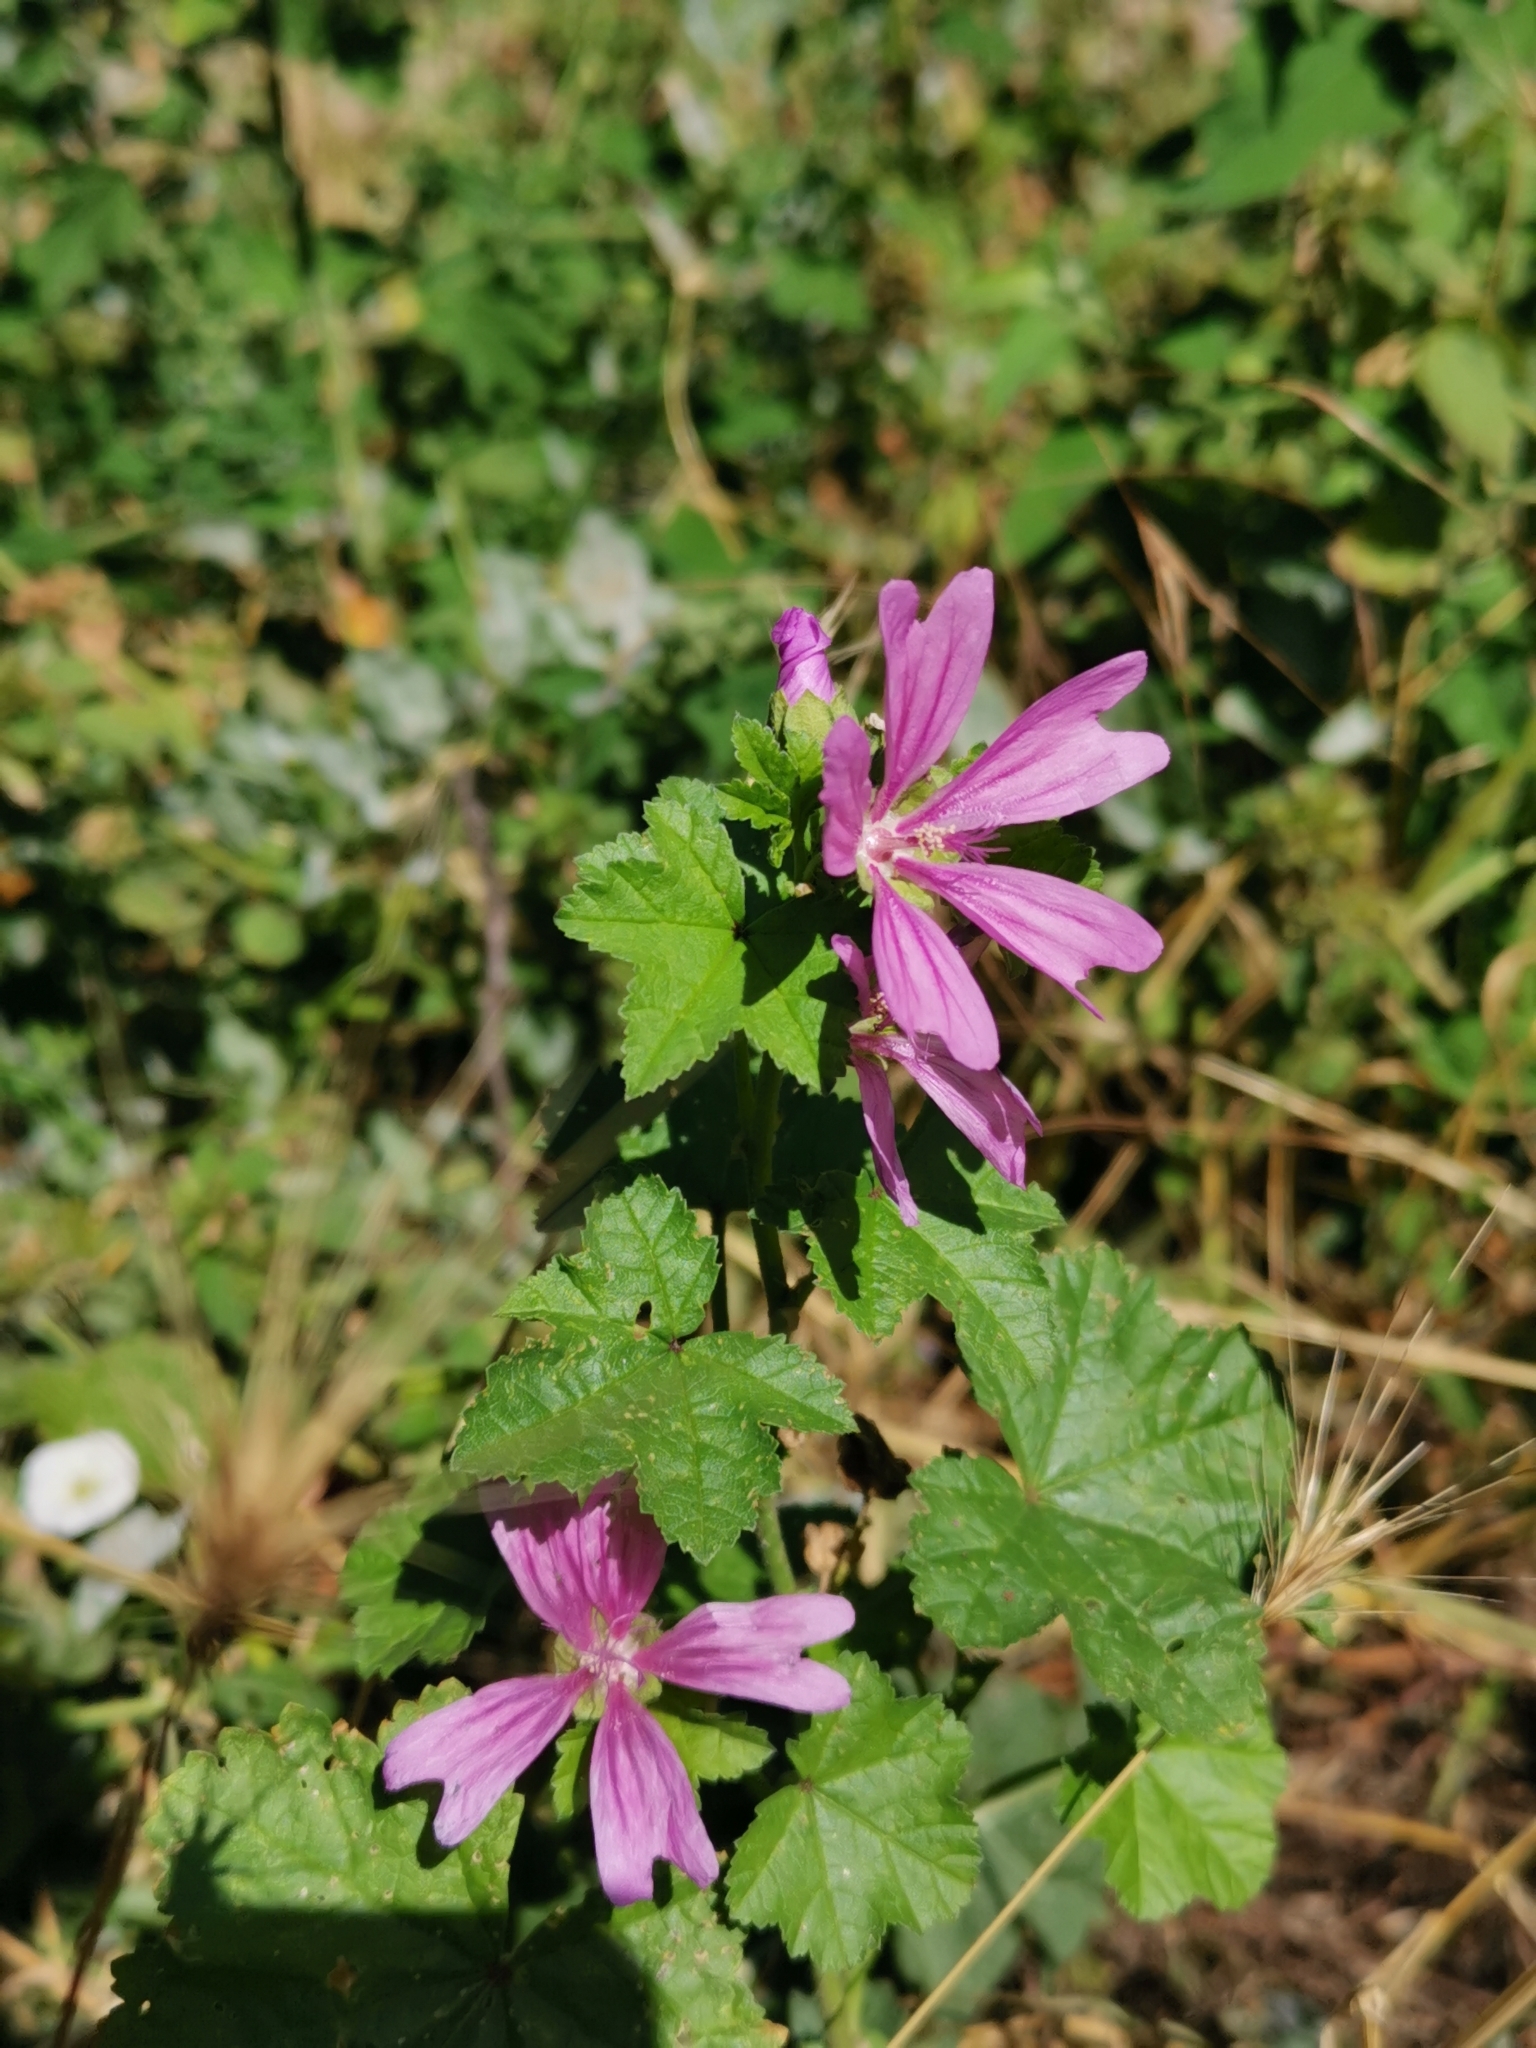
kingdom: Plantae
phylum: Tracheophyta
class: Magnoliopsida
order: Malvales
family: Malvaceae
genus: Malva
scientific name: Malva sylvestris
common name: Common mallow
